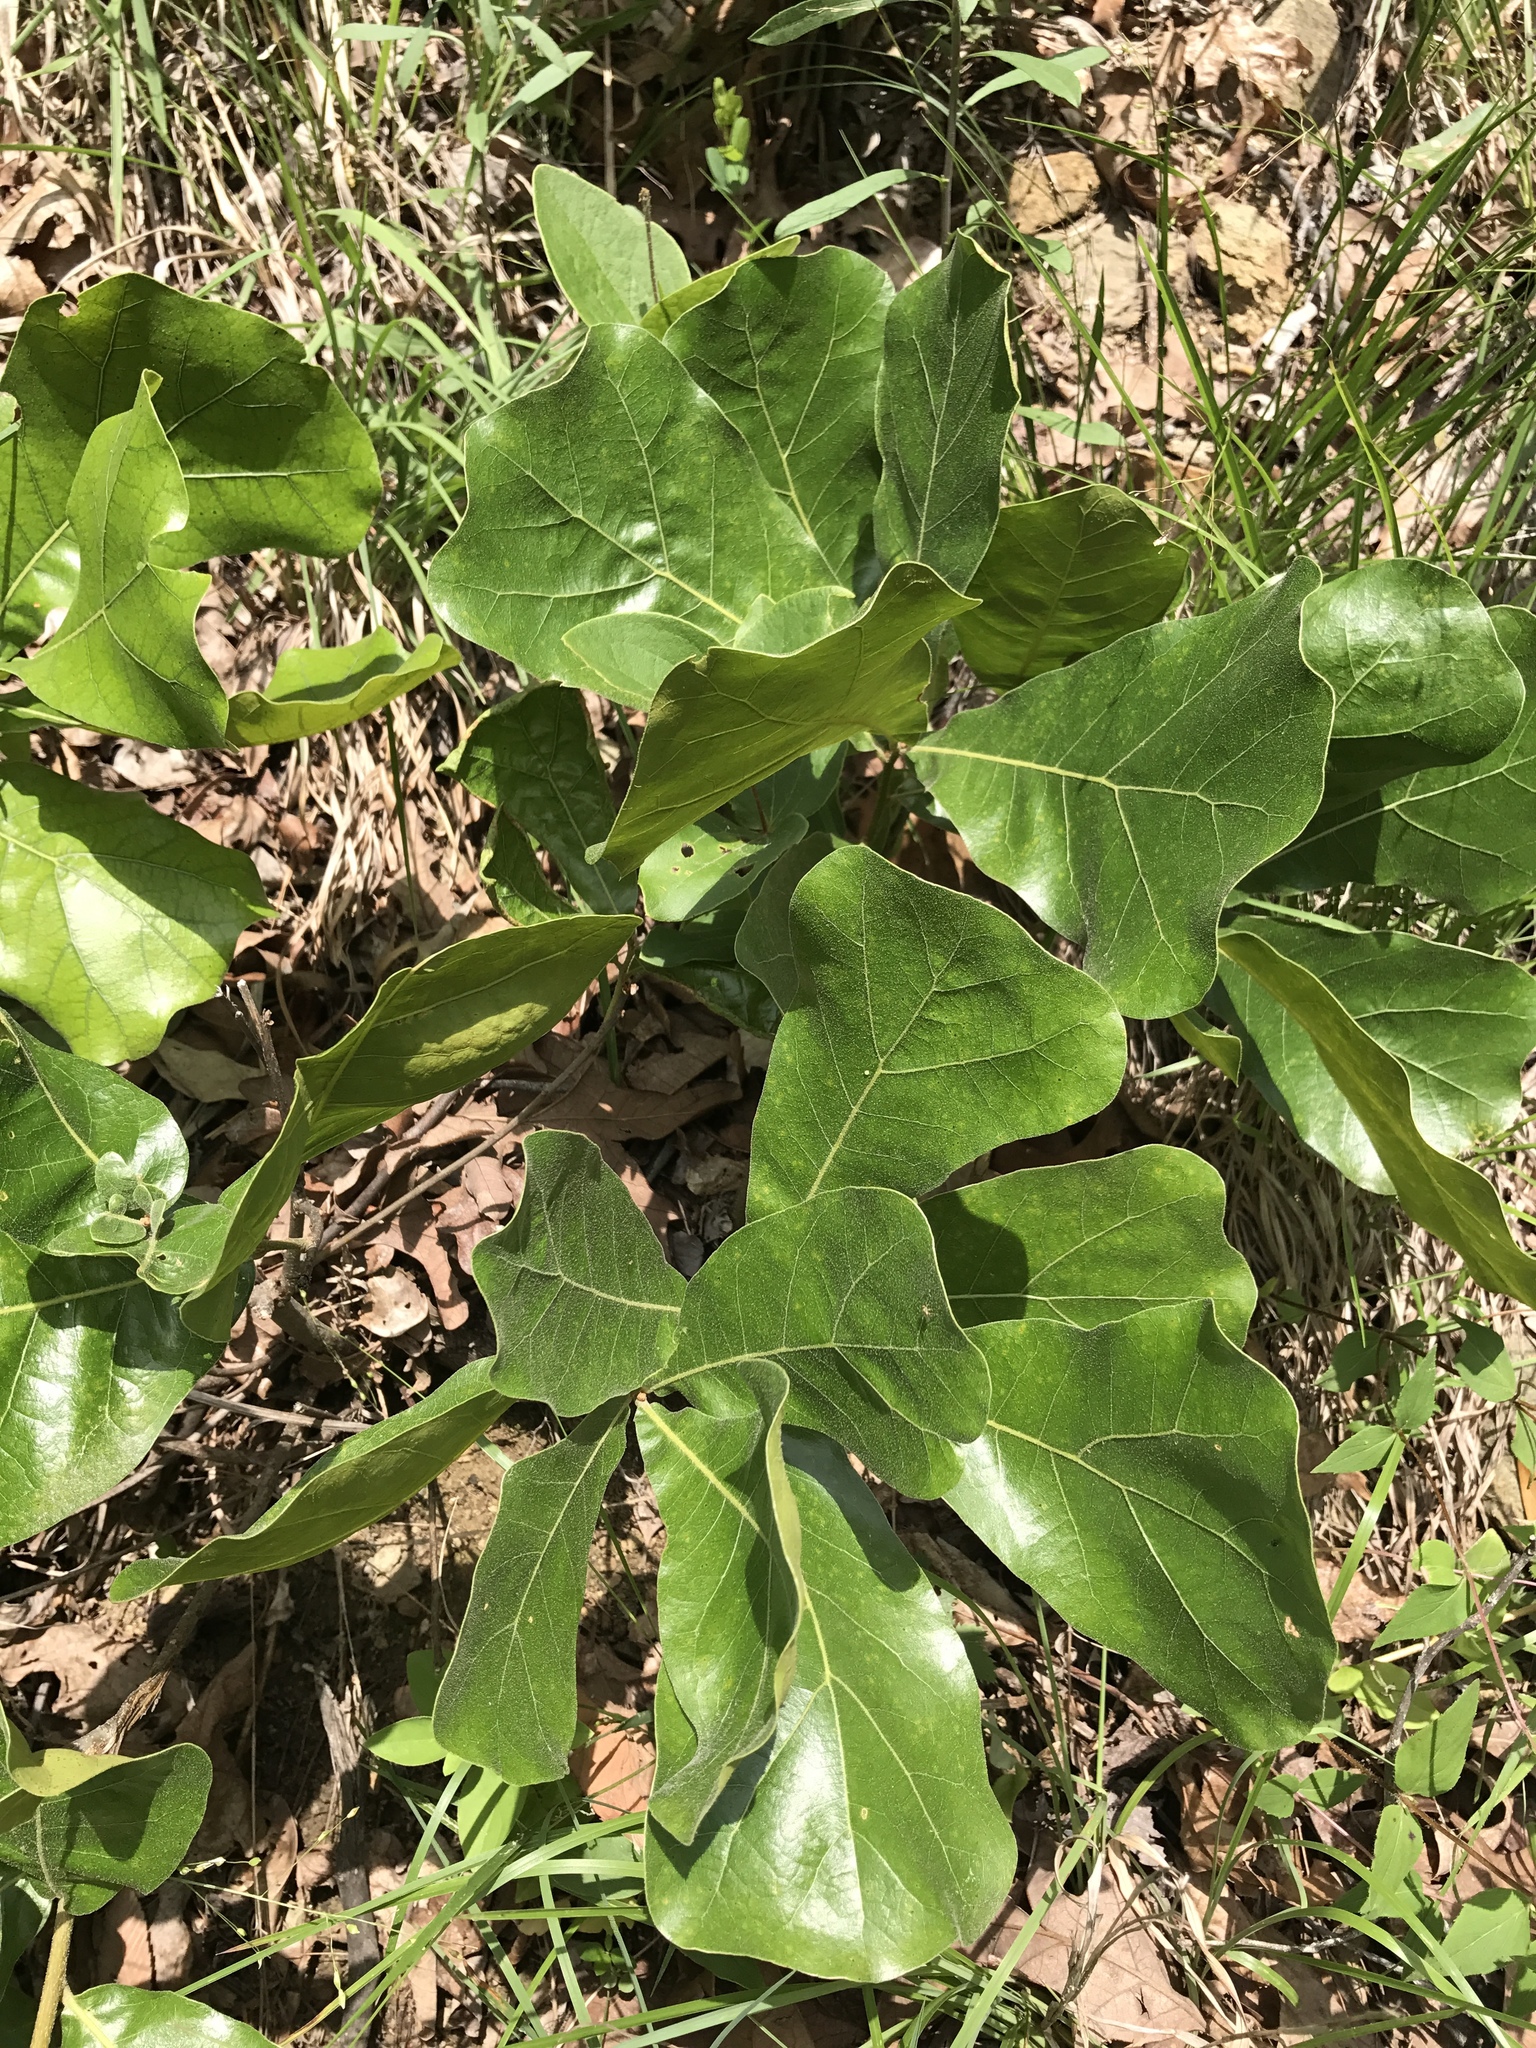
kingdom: Plantae
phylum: Tracheophyta
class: Magnoliopsida
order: Fagales
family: Fagaceae
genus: Quercus
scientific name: Quercus marilandica
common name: Blackjack oak
